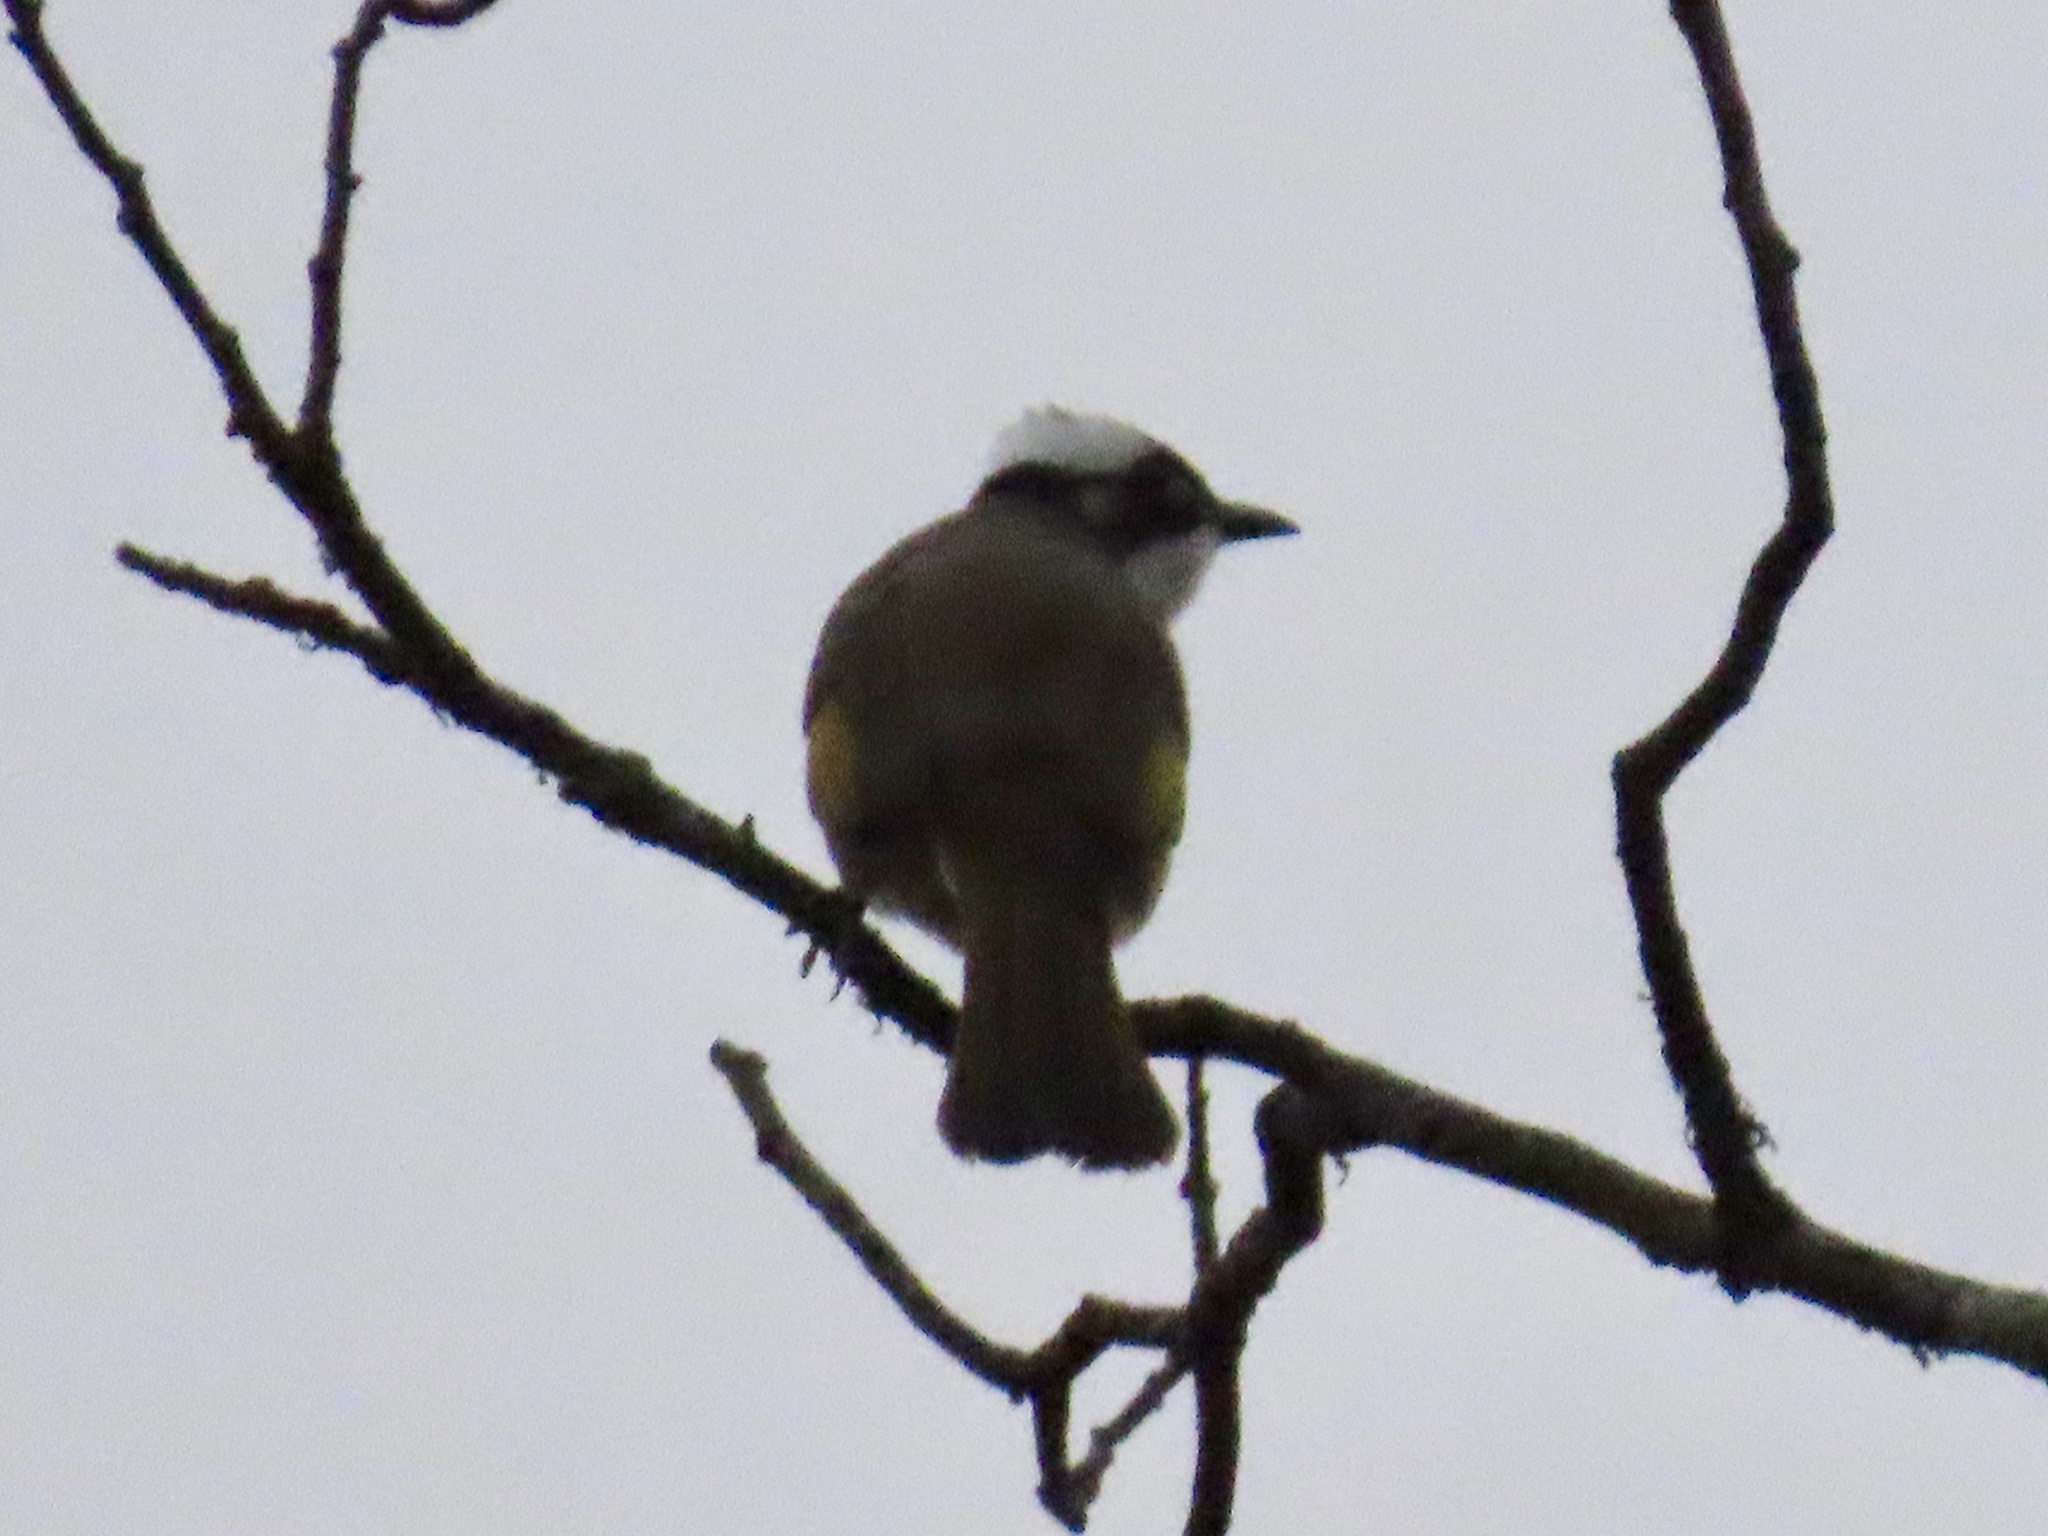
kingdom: Animalia
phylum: Chordata
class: Aves
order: Passeriformes
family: Pycnonotidae
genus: Pycnonotus
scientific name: Pycnonotus sinensis
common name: Light-vented bulbul
